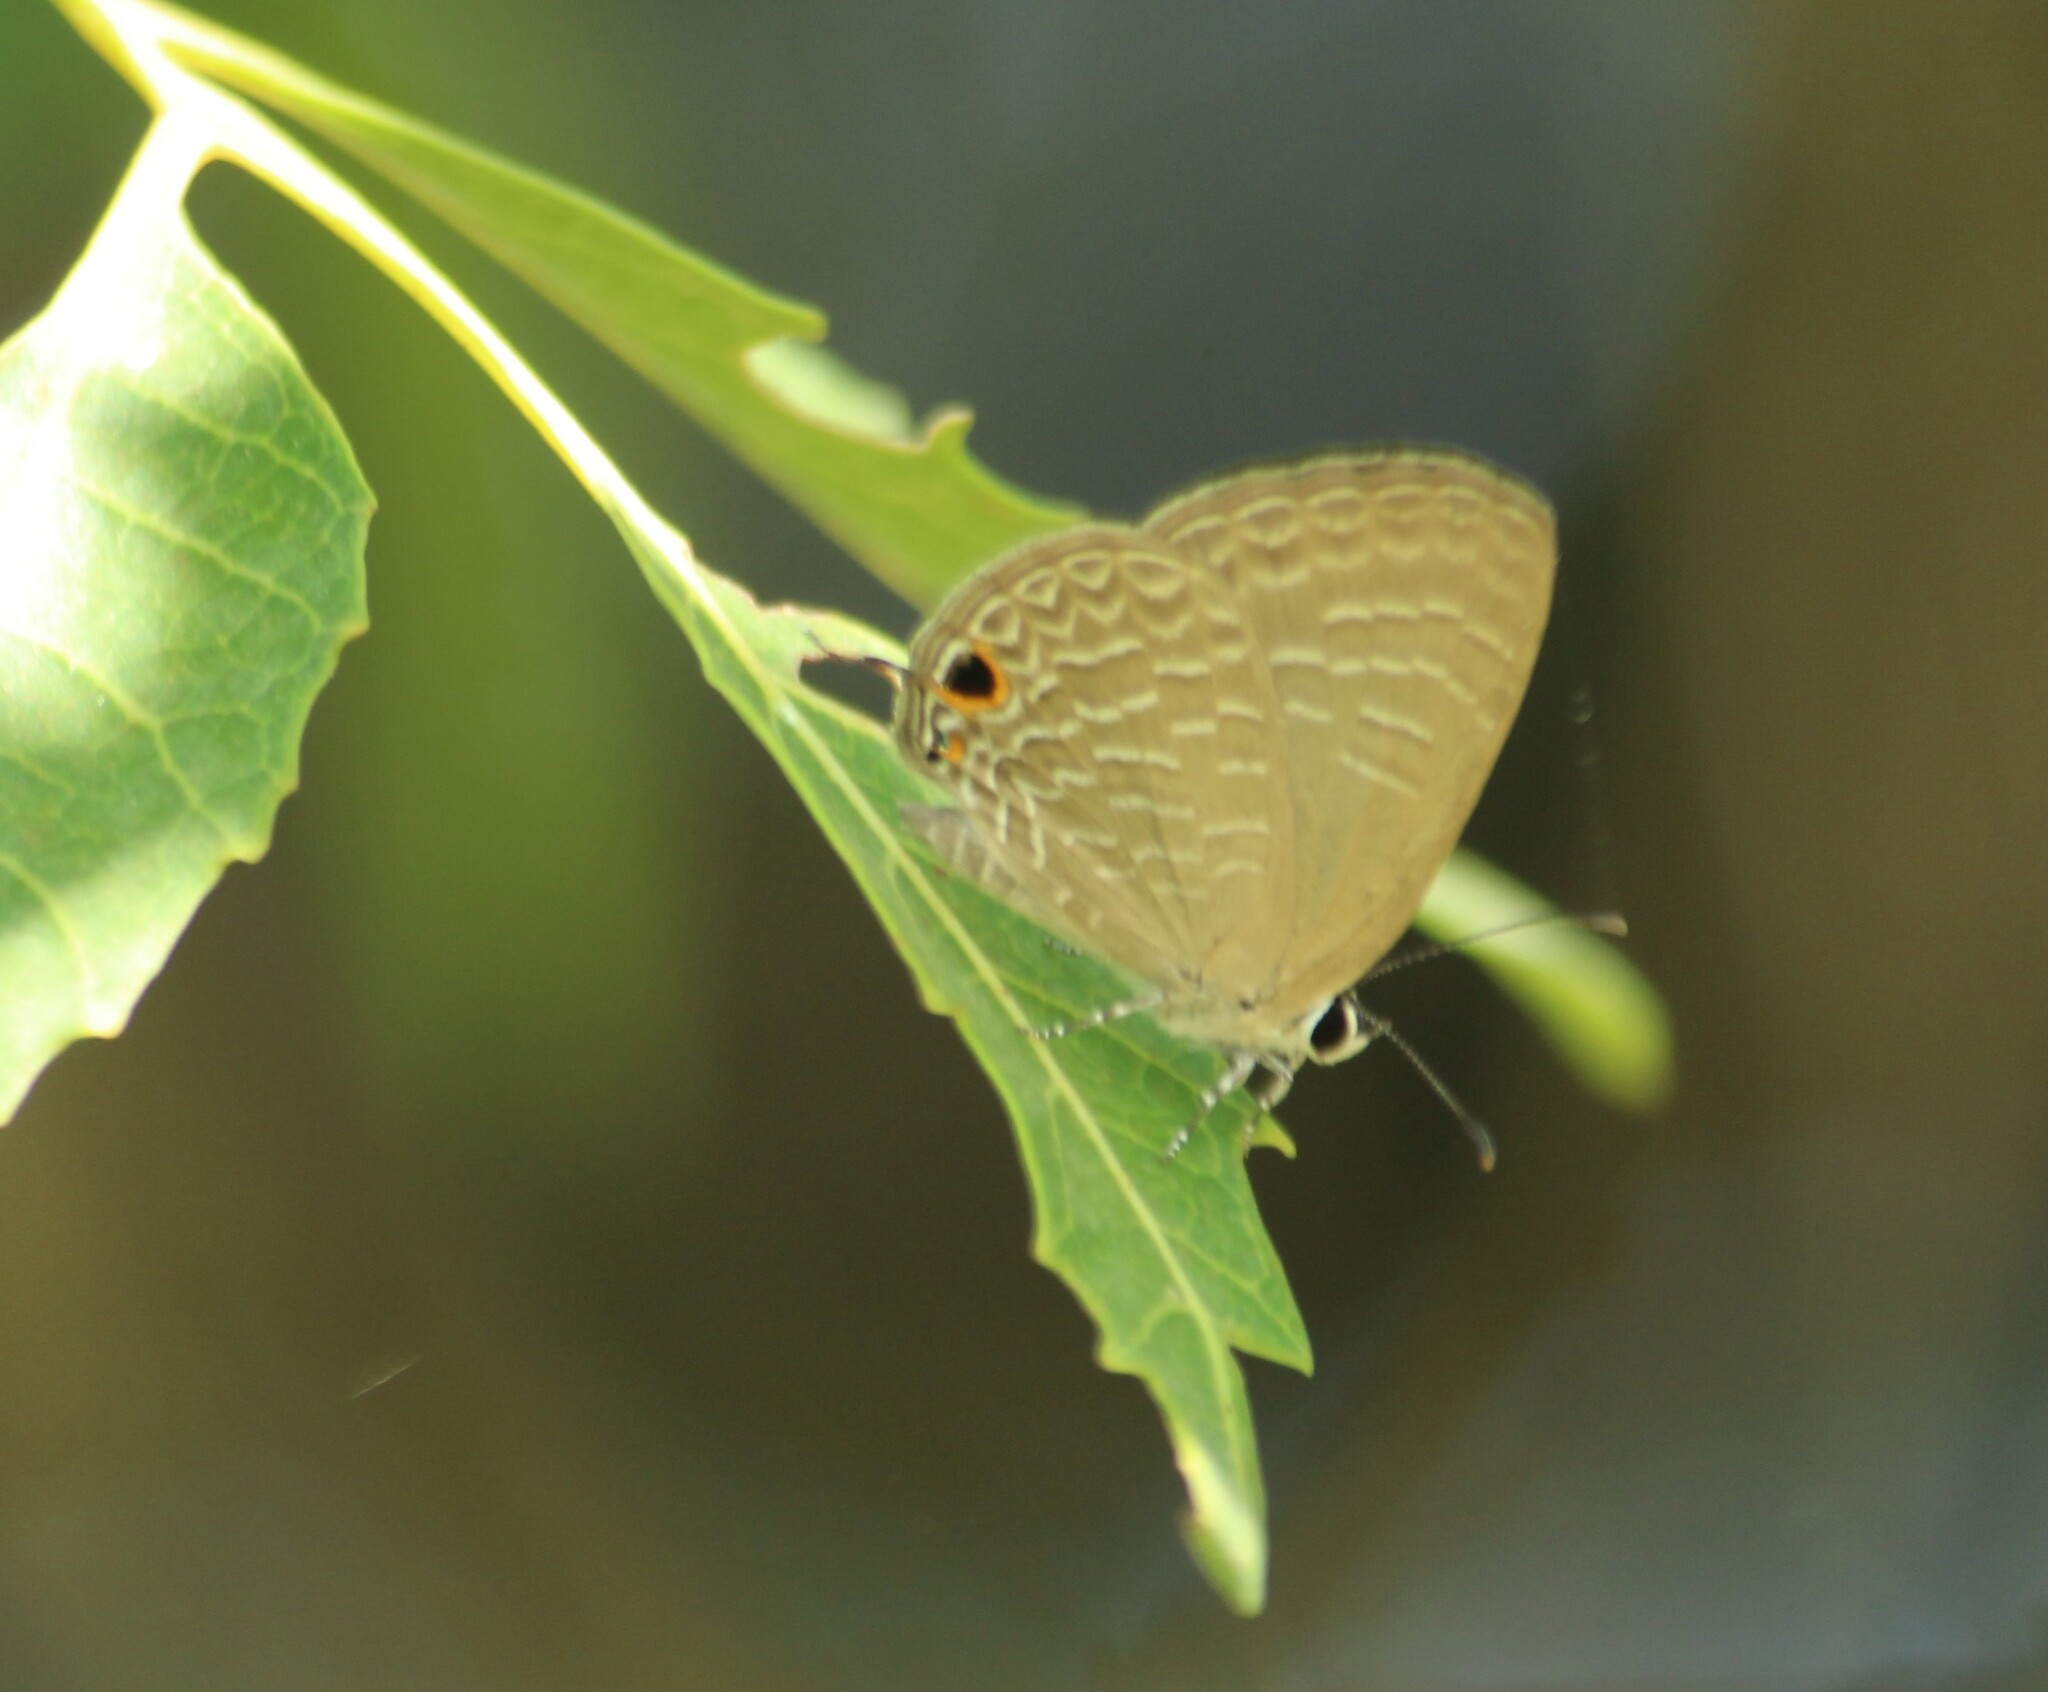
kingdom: Animalia
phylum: Arthropoda
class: Insecta
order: Lepidoptera
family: Lycaenidae
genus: Jamides
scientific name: Jamides bochus
